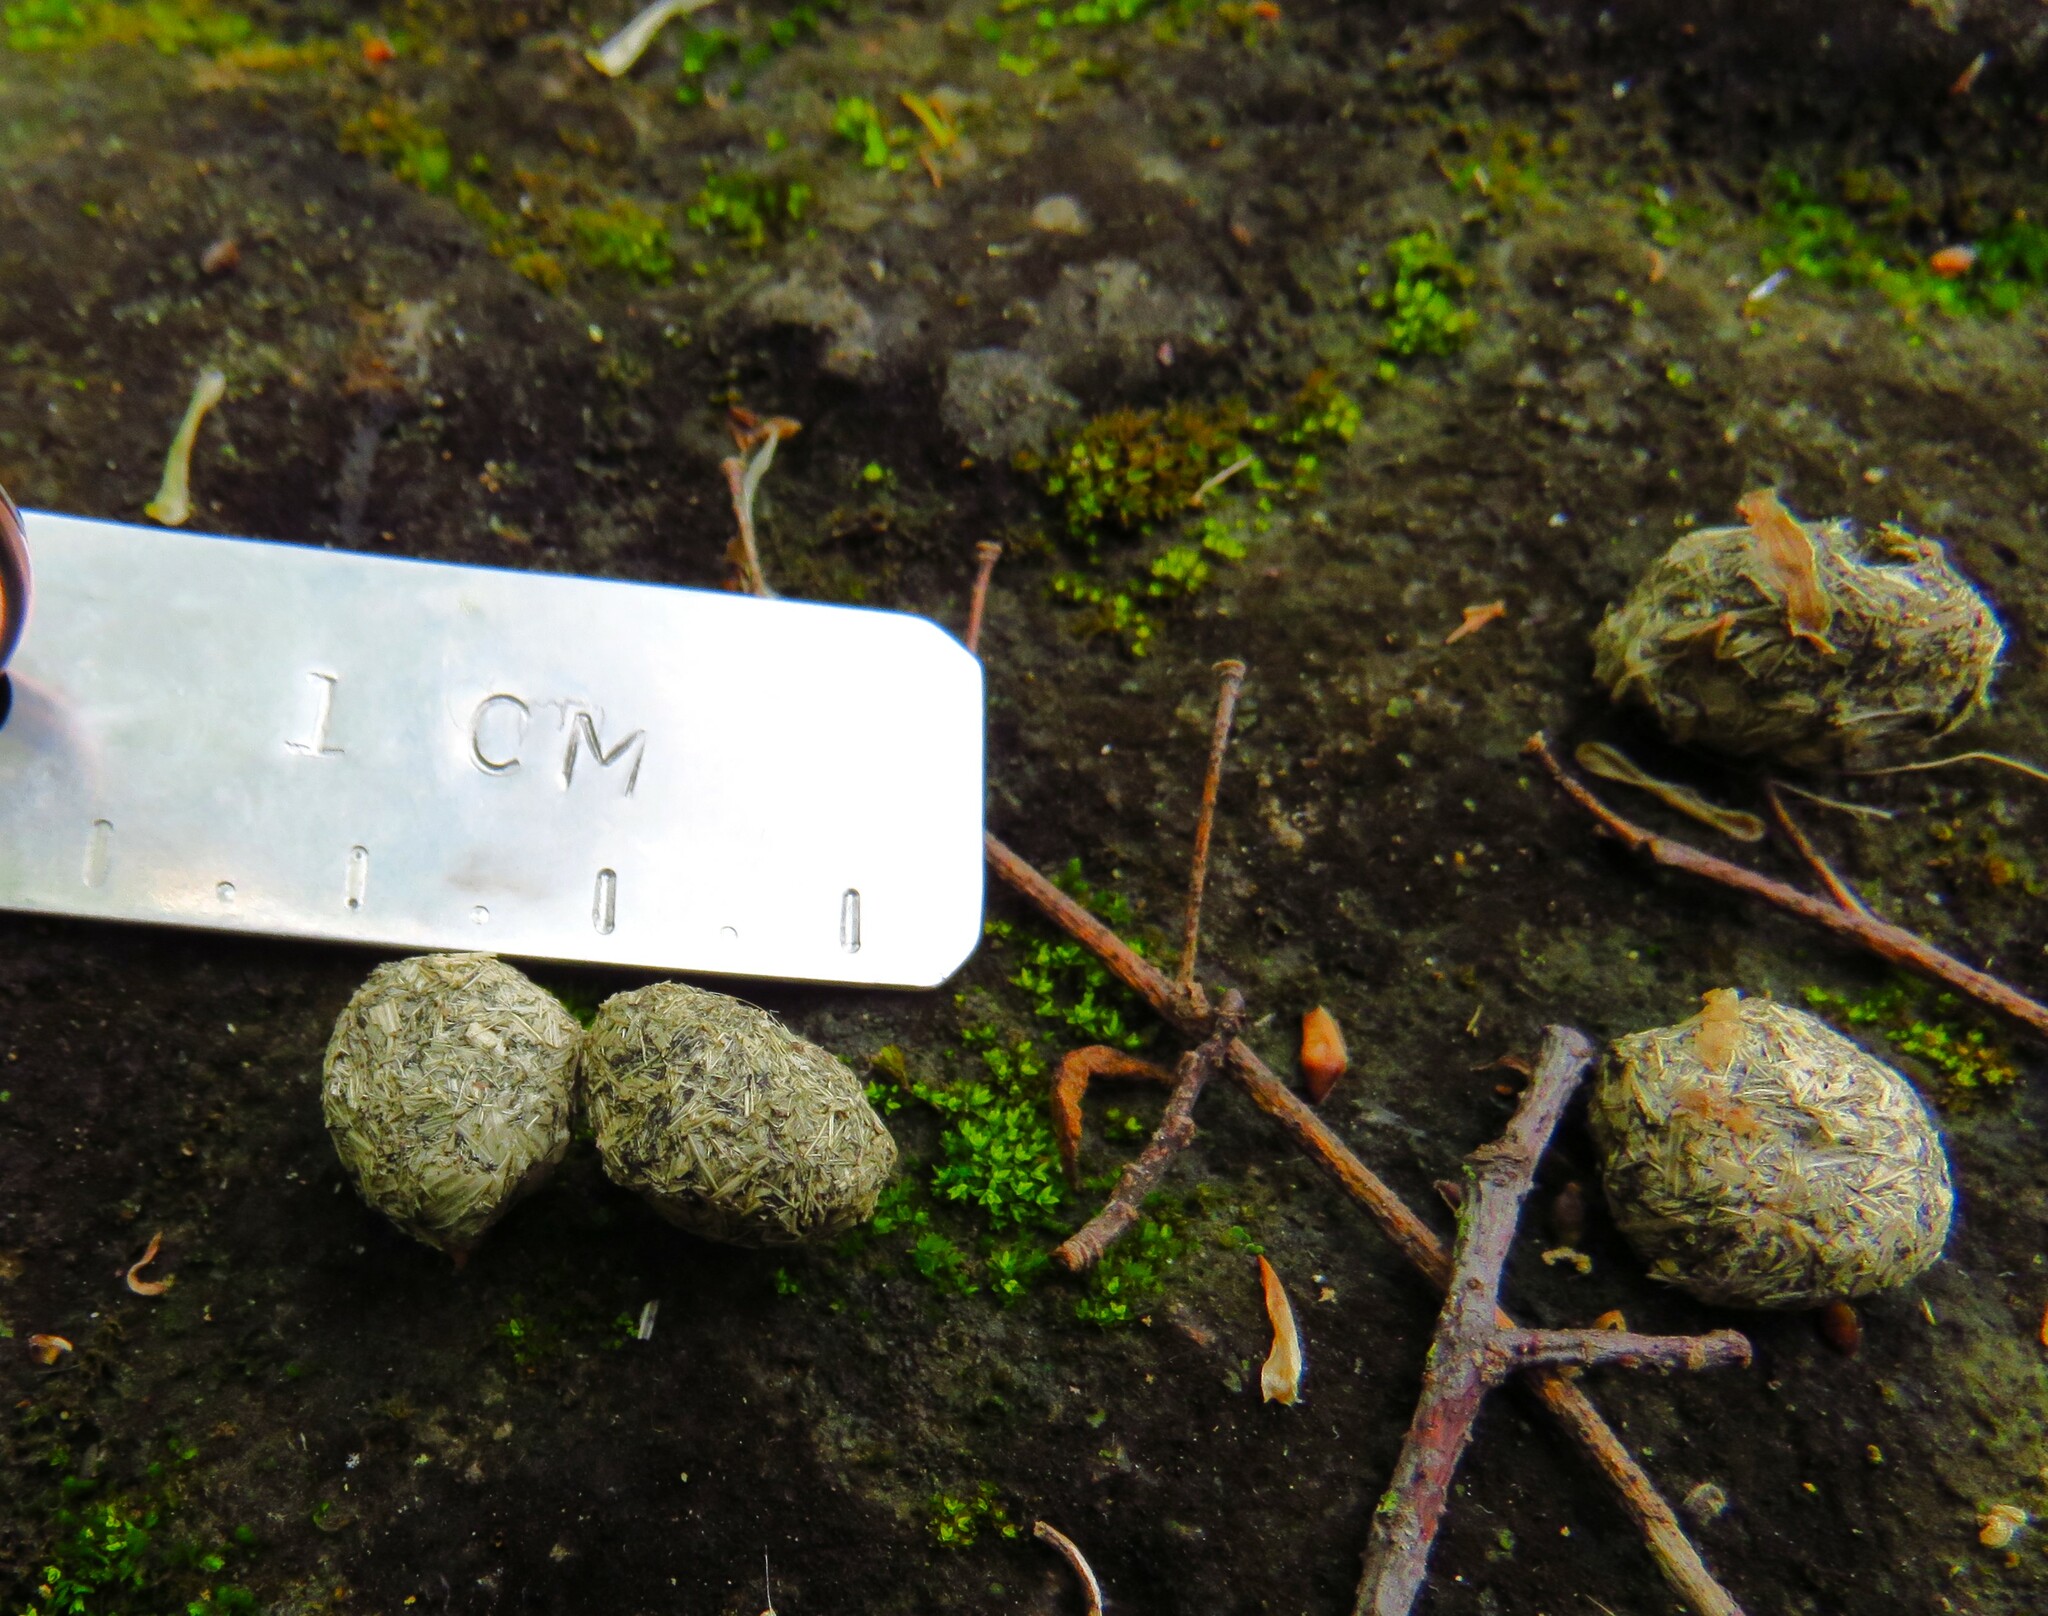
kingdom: Animalia
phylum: Chordata
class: Mammalia
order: Lagomorpha
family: Leporidae
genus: Sylvilagus
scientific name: Sylvilagus aquaticus
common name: Swamp rabbit
